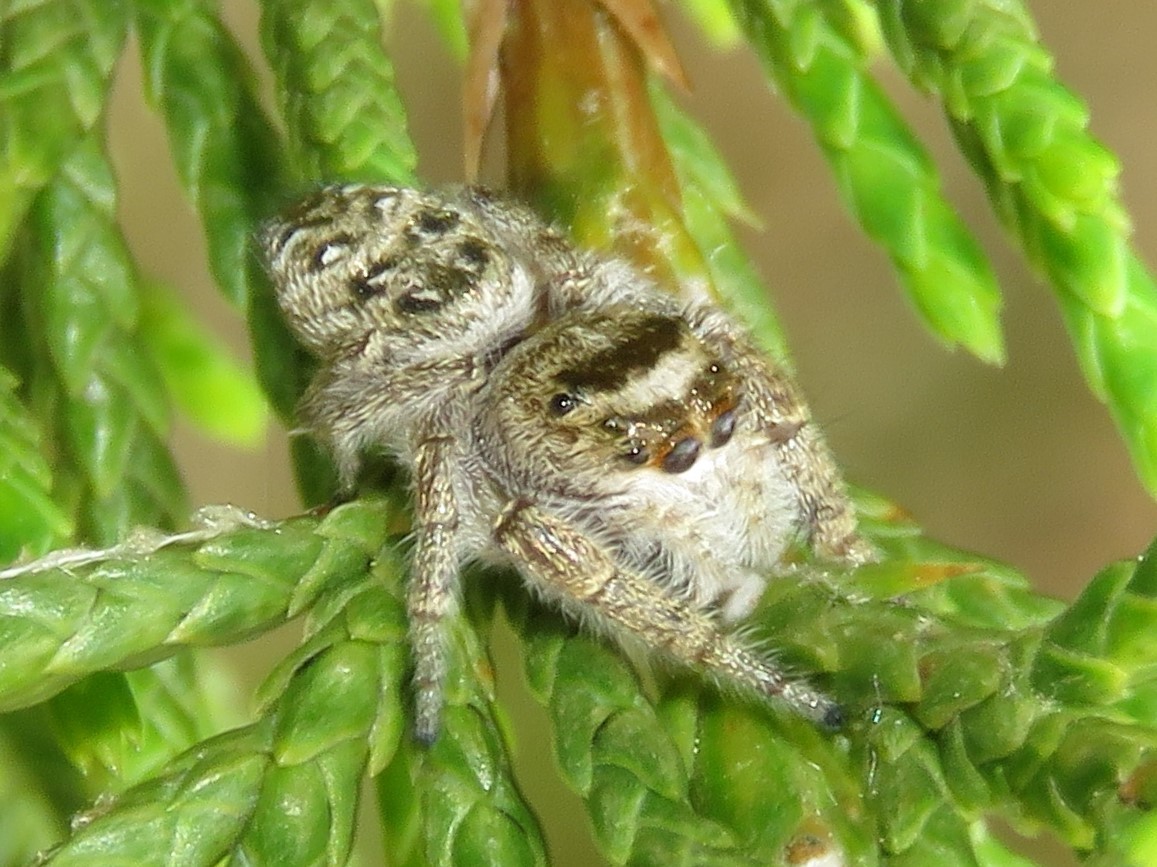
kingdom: Animalia
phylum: Arthropoda
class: Arachnida
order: Araneae
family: Salticidae
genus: Eris
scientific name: Eris militaris
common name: Bronze jumper
